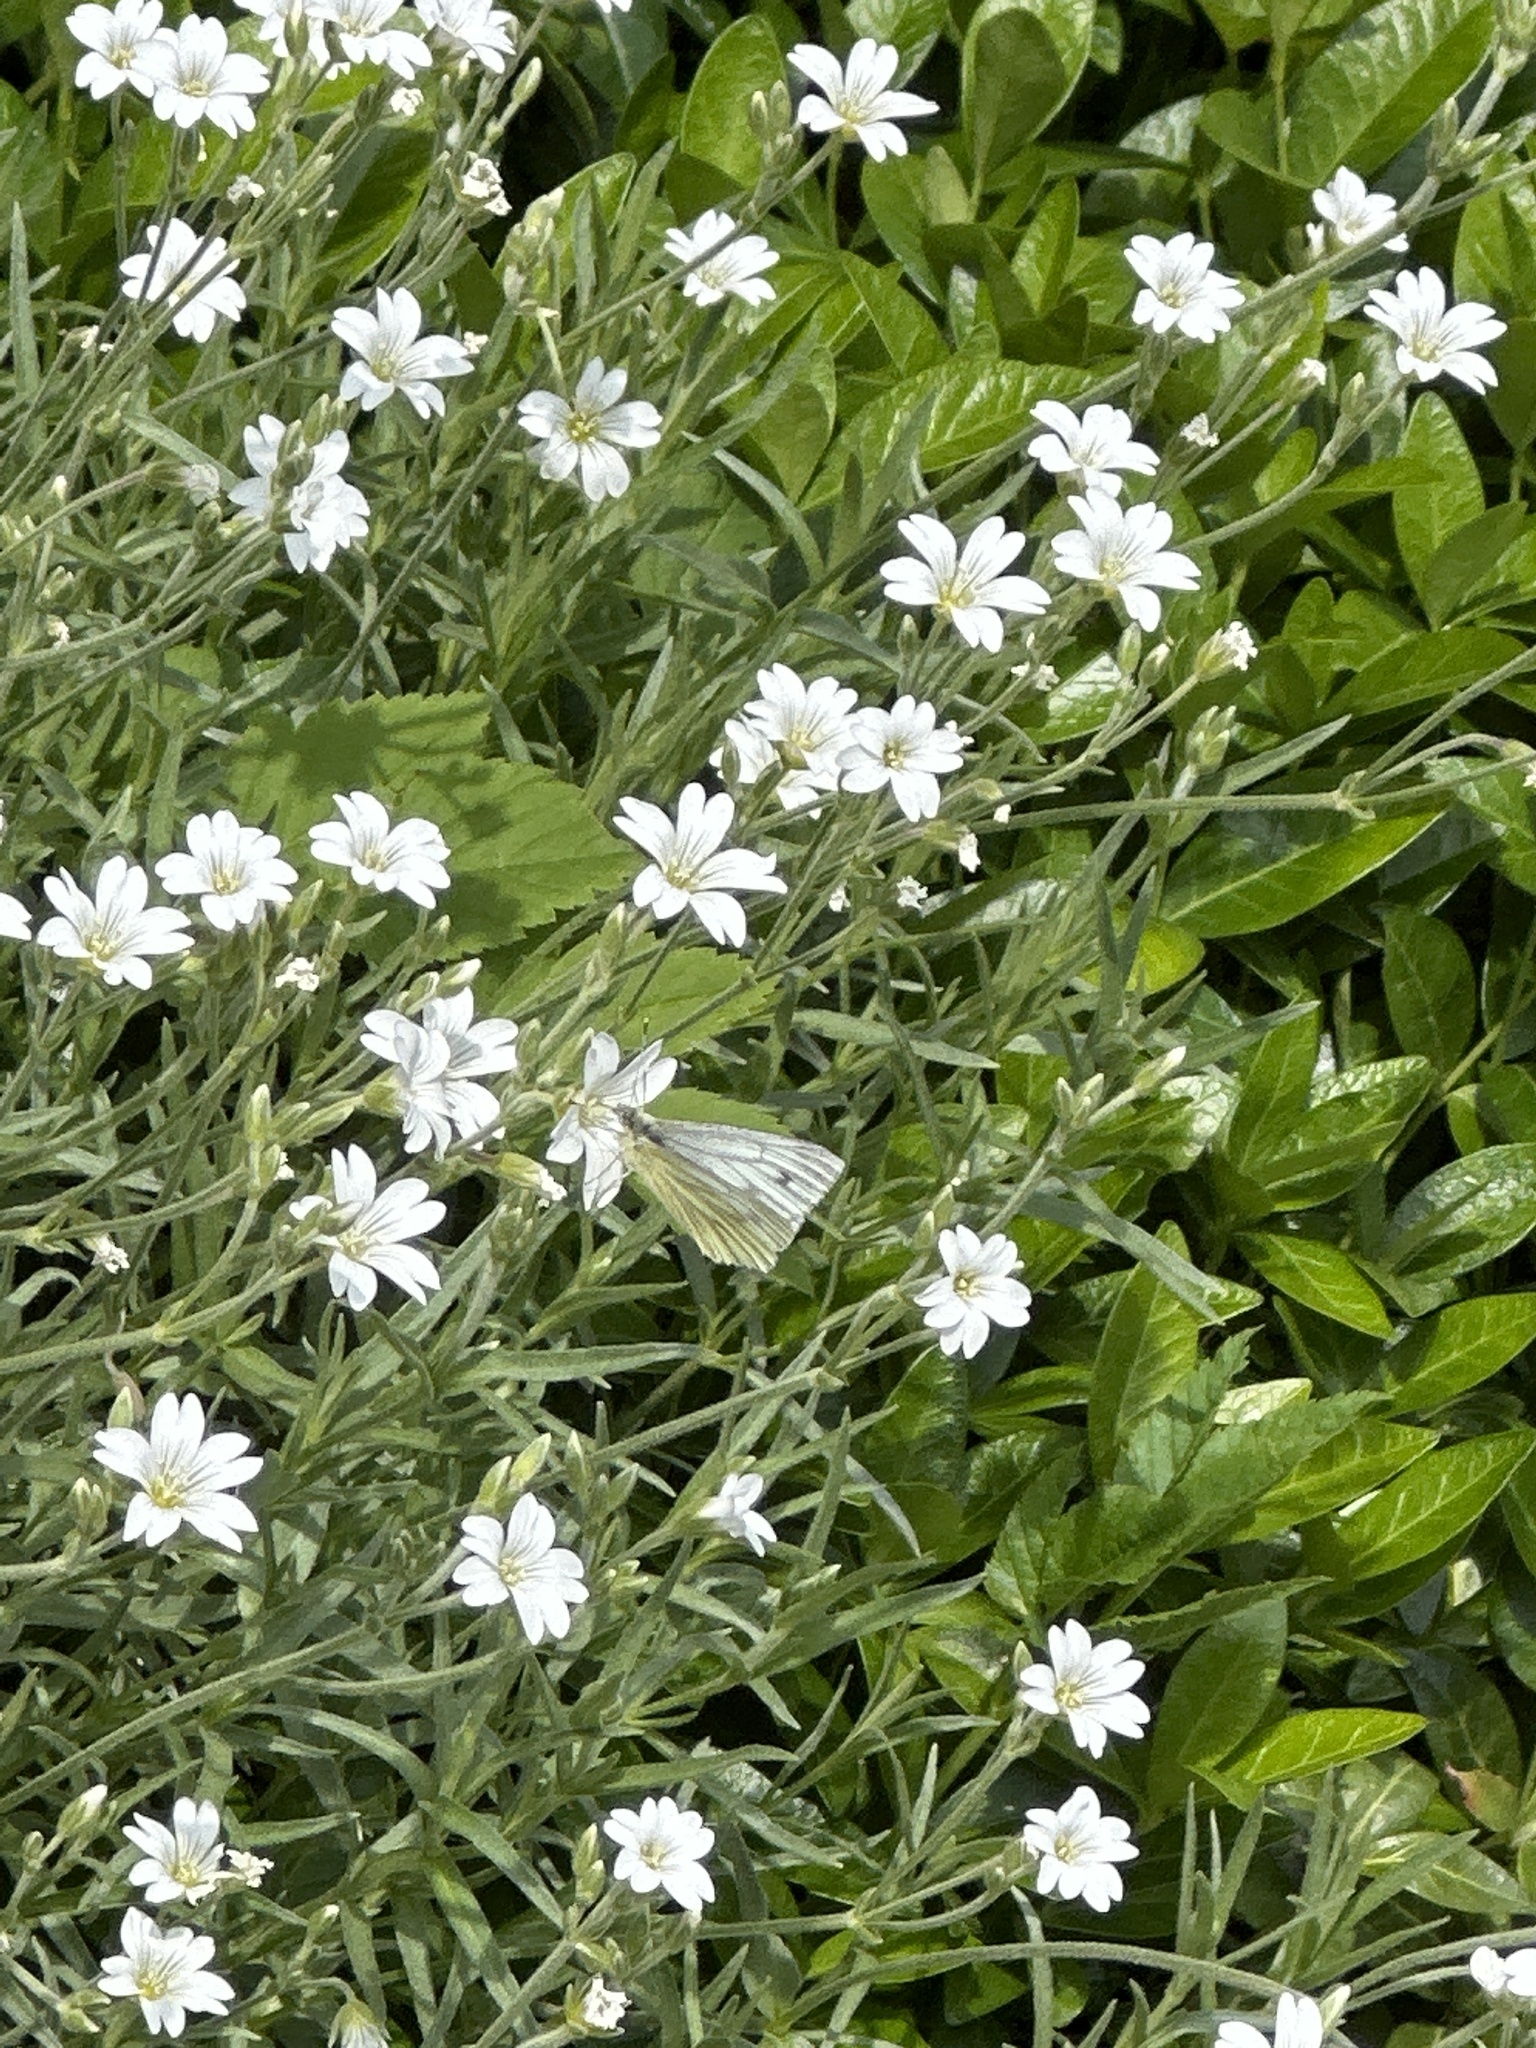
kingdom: Animalia
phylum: Arthropoda
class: Insecta
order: Lepidoptera
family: Pieridae
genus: Pieris
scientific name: Pieris napi
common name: Green-veined white
